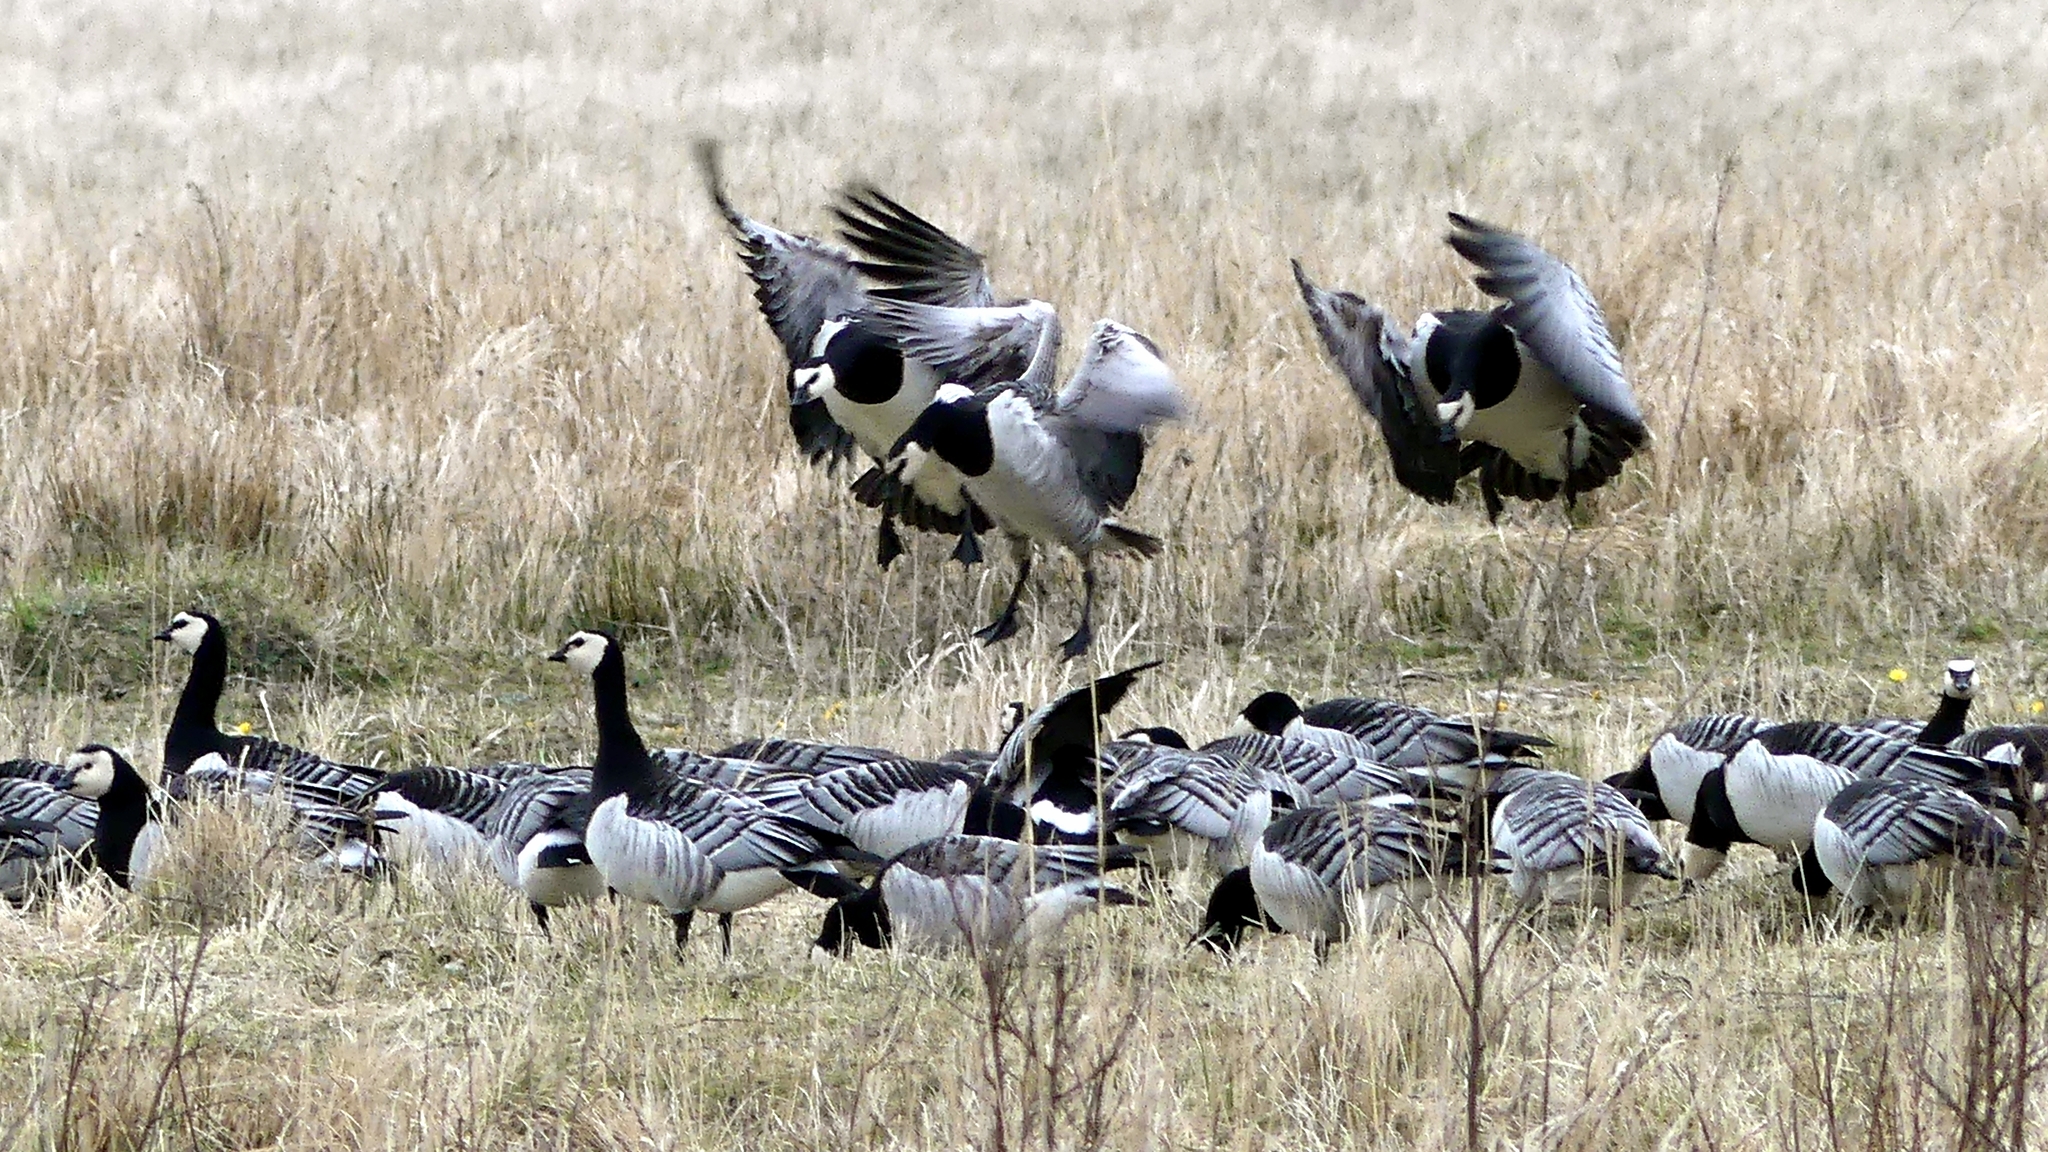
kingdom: Animalia
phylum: Chordata
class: Aves
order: Anseriformes
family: Anatidae
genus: Branta
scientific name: Branta leucopsis
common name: Barnacle goose
